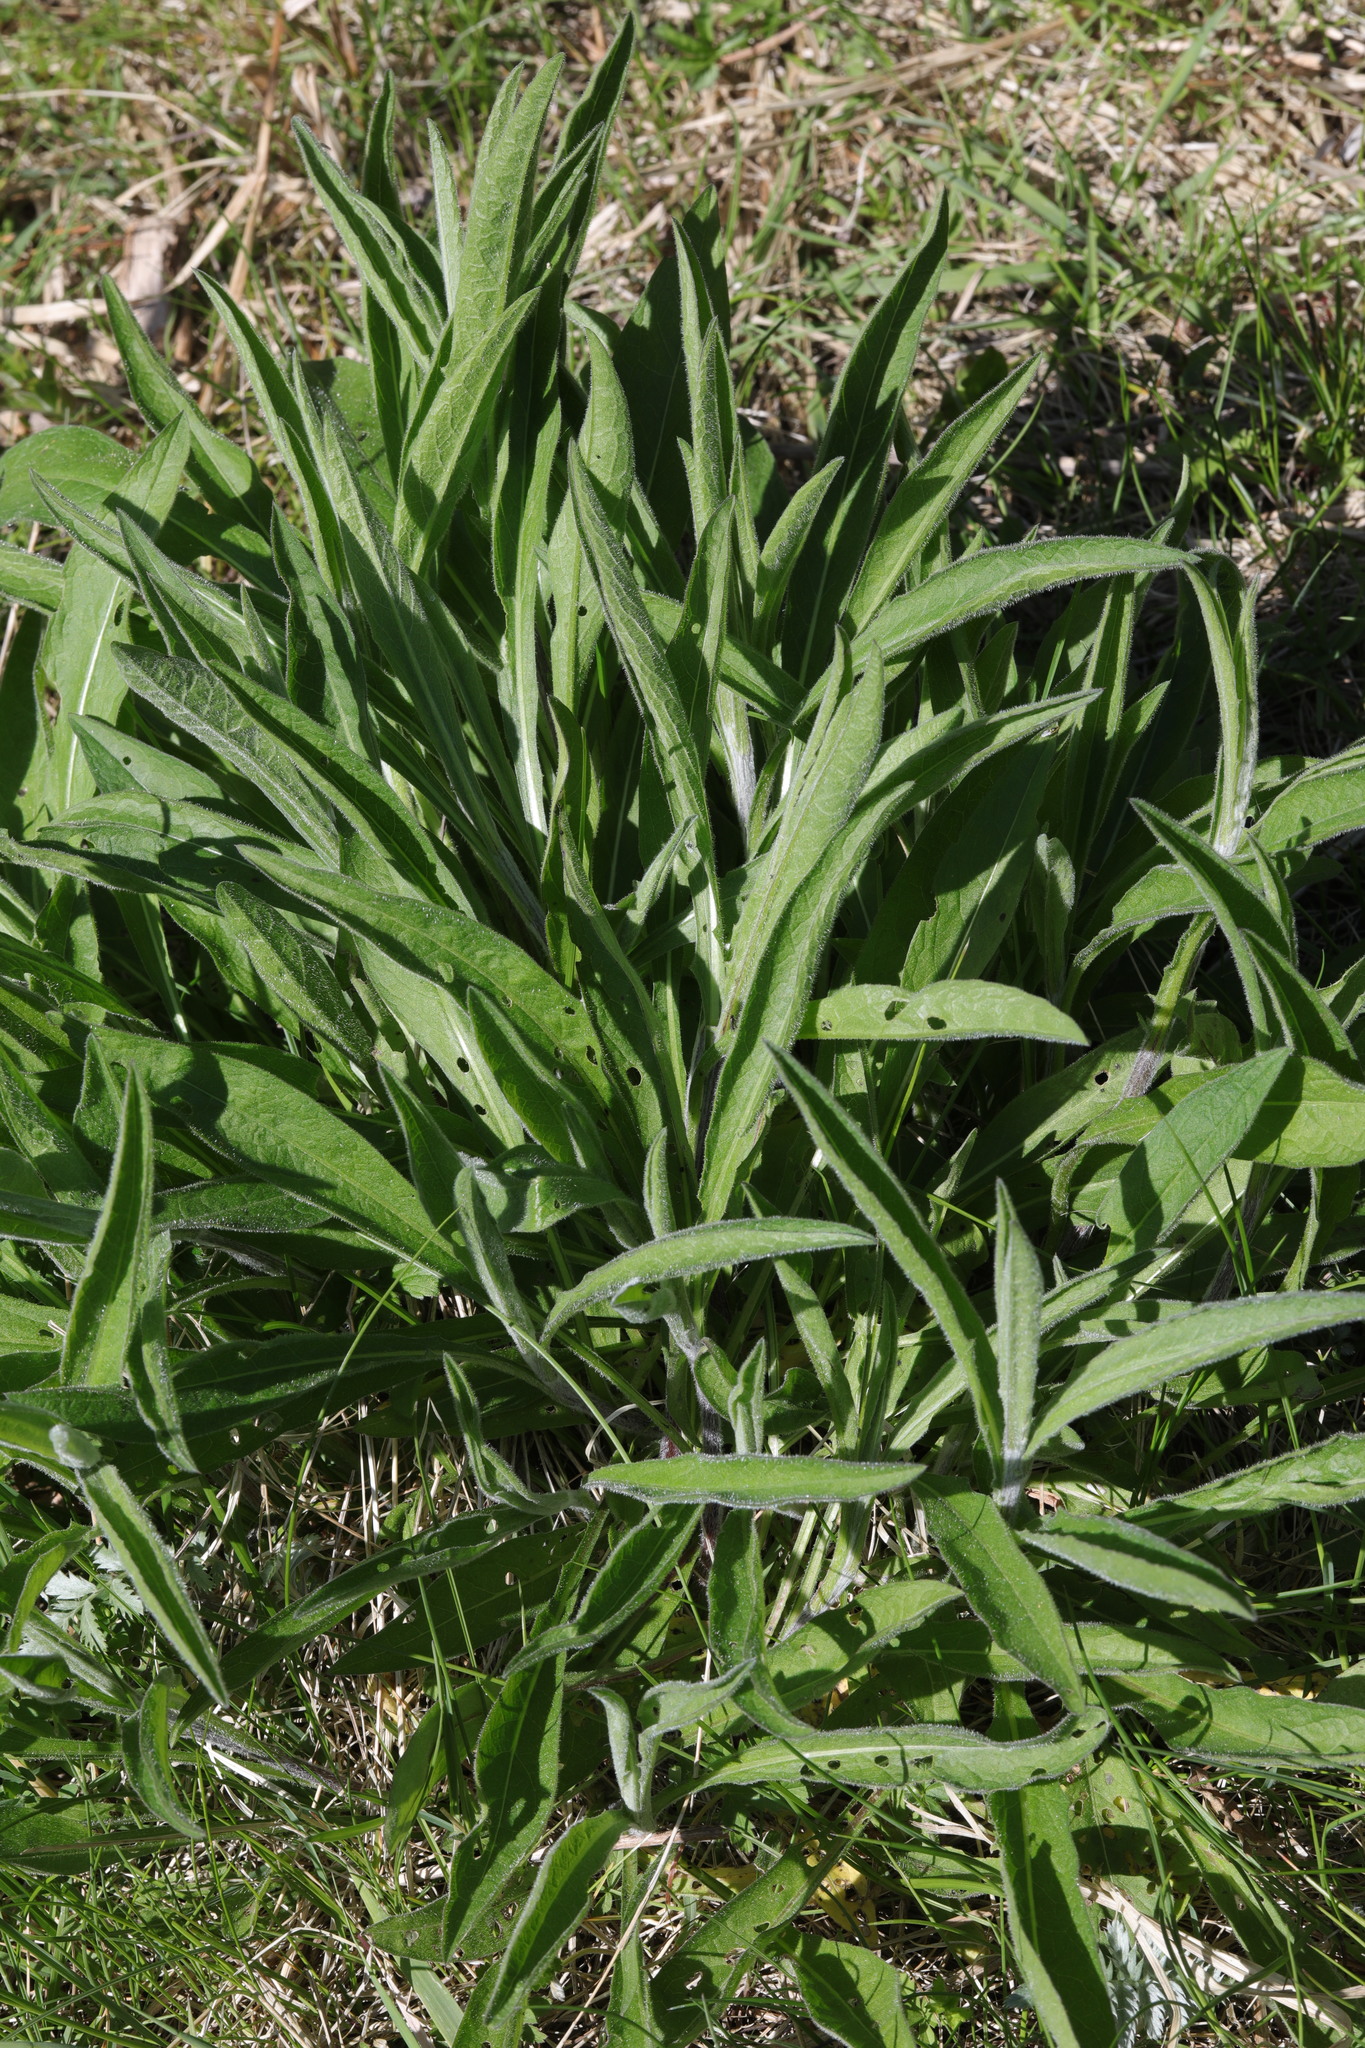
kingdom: Plantae
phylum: Tracheophyta
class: Magnoliopsida
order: Asterales
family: Asteraceae
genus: Centaurea
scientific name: Centaurea nigra
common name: Lesser knapweed
